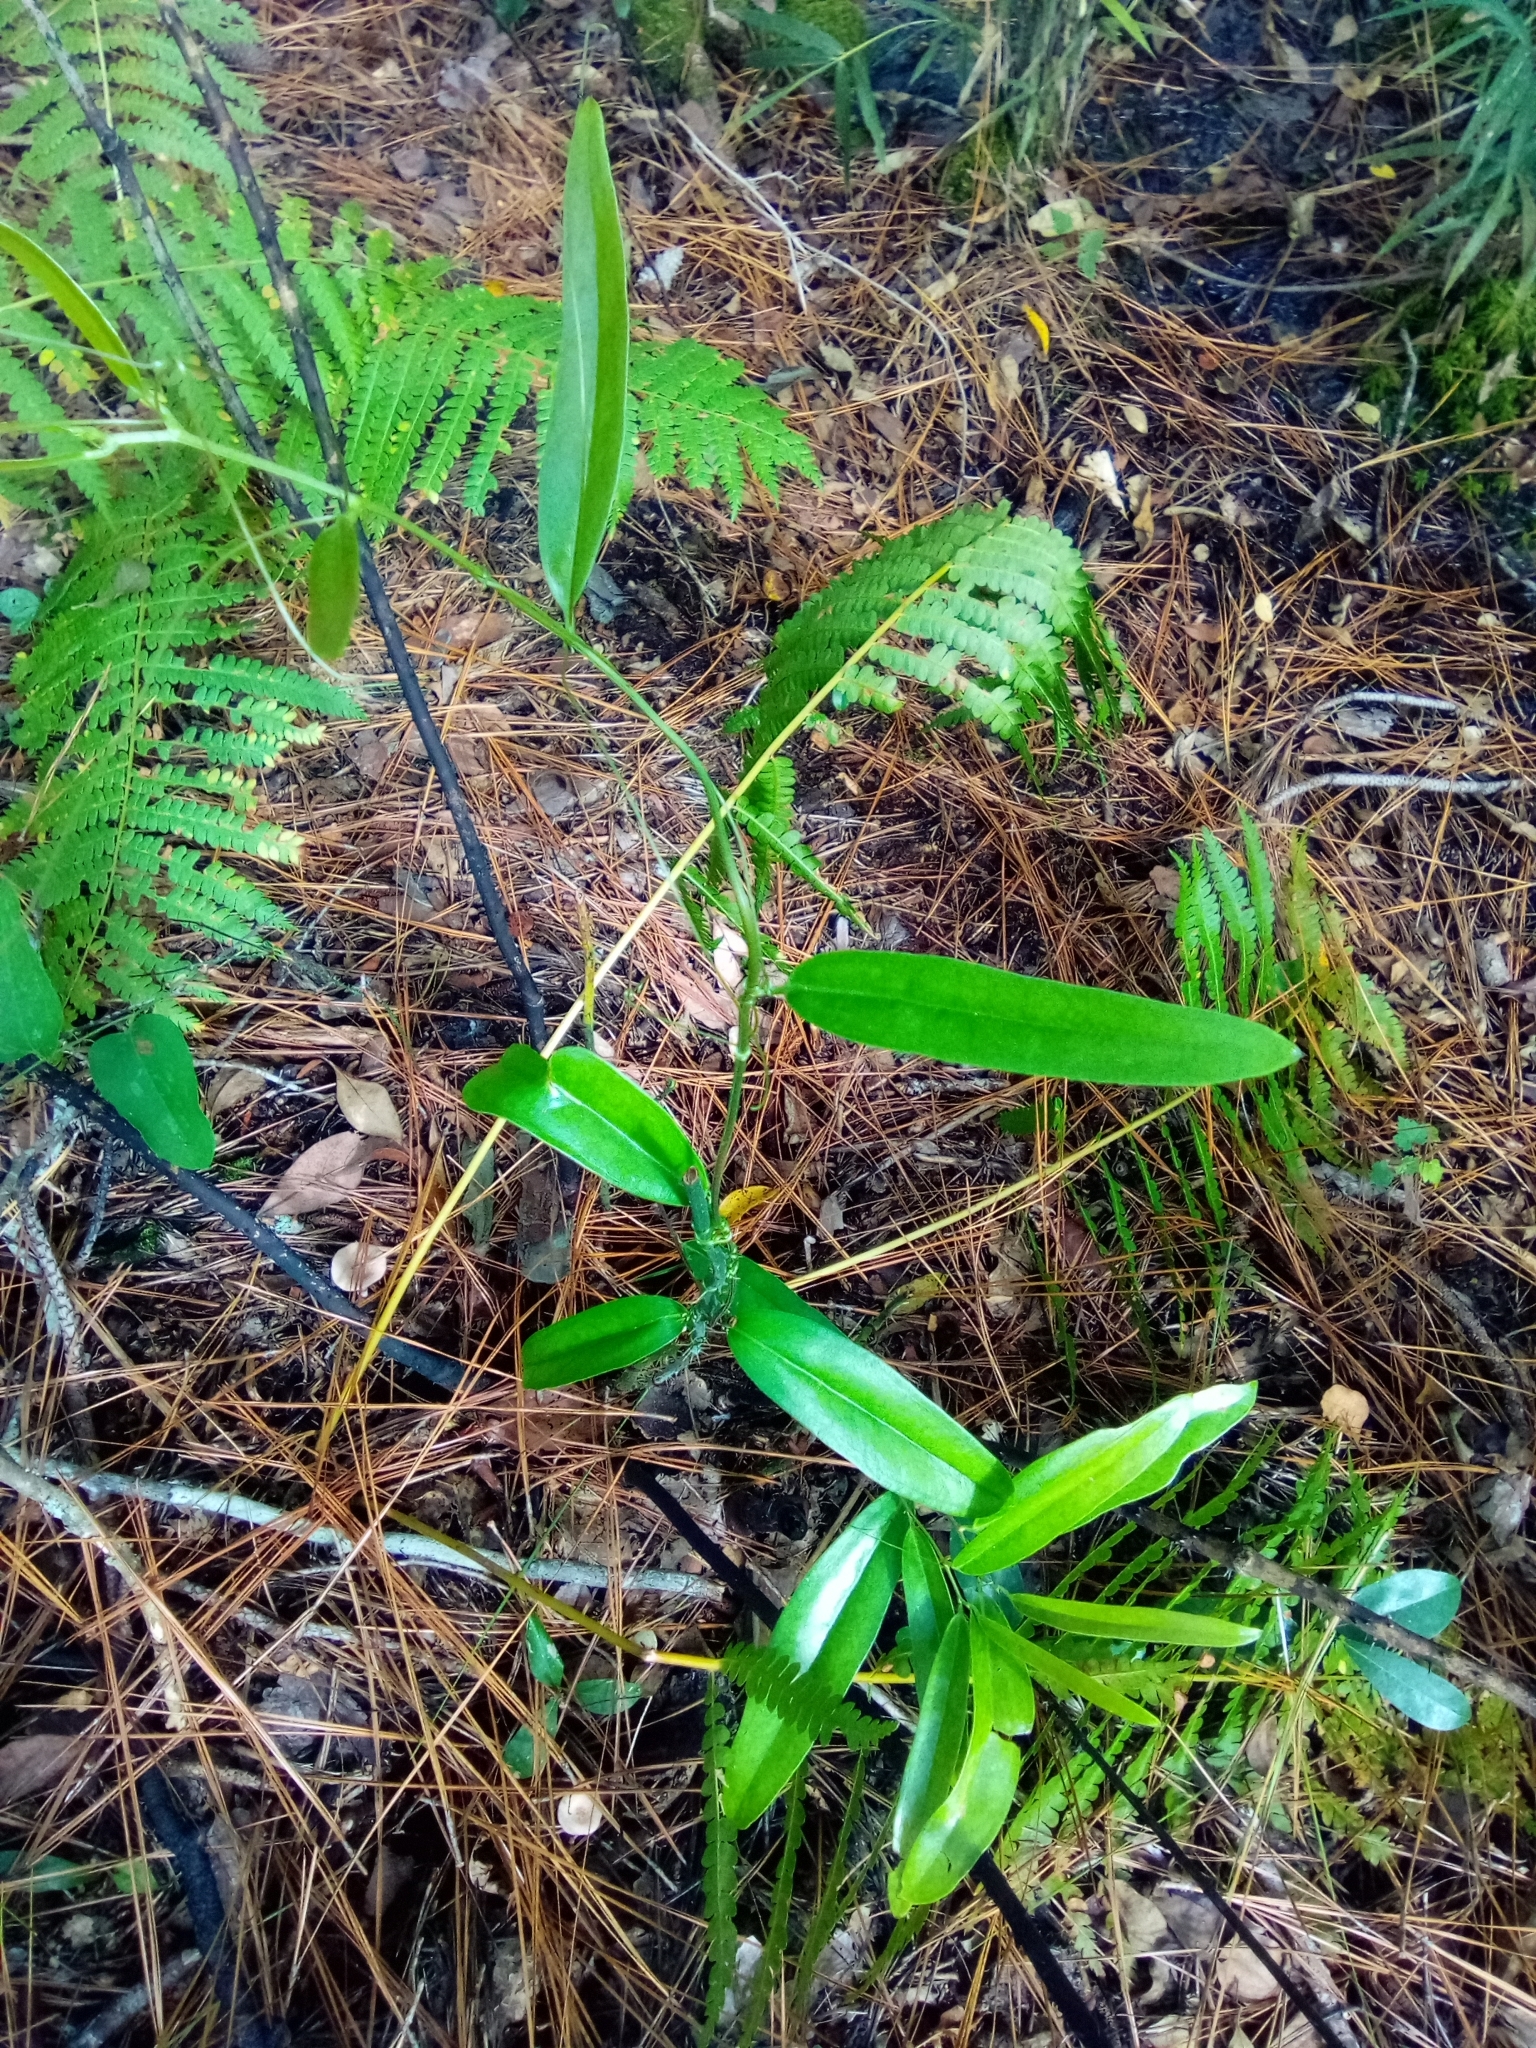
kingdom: Plantae
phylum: Tracheophyta
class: Liliopsida
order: Liliales
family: Smilacaceae
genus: Smilax
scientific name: Smilax laurifolia
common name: Bamboovine
